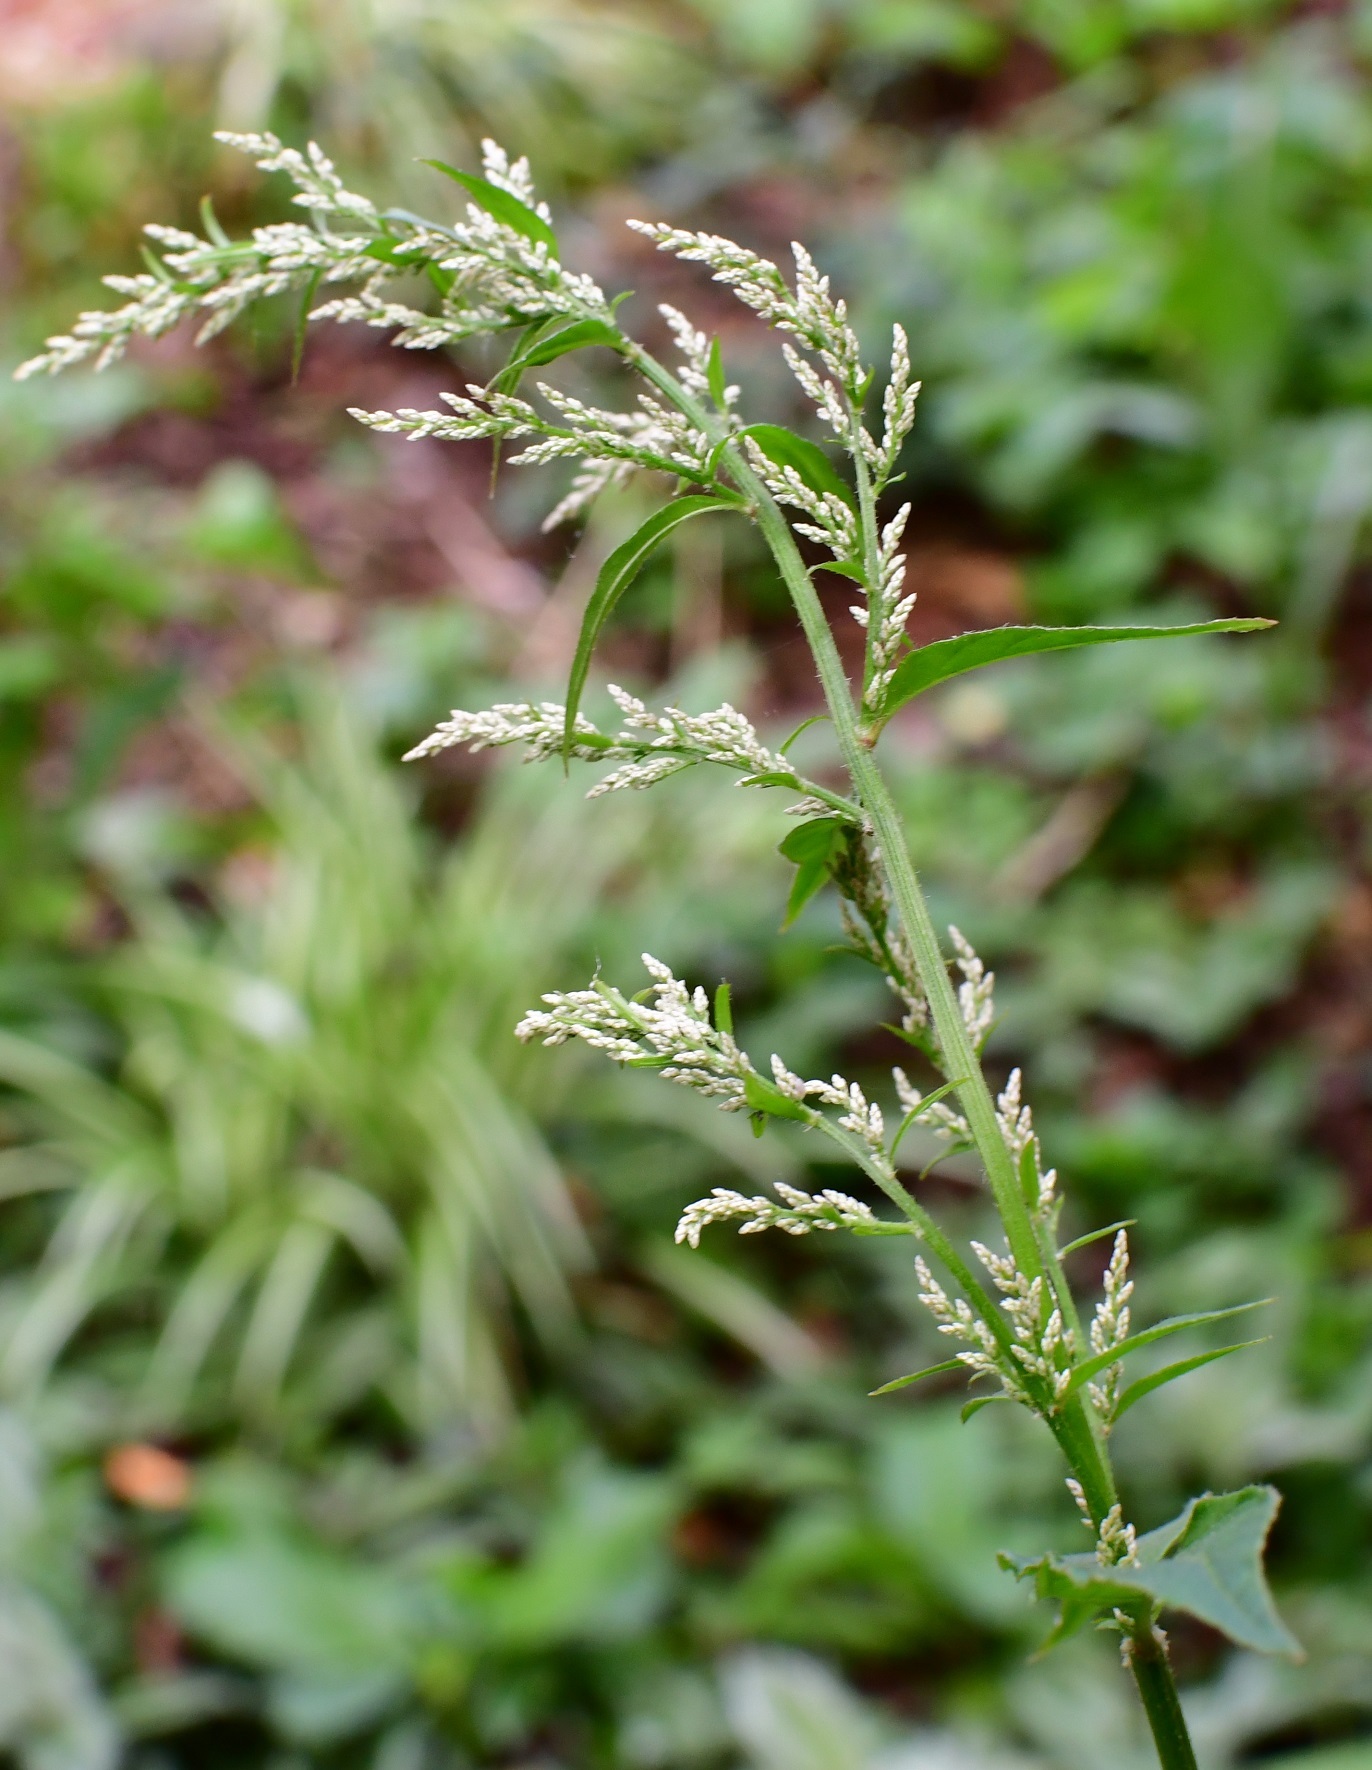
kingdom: Plantae
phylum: Tracheophyta
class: Magnoliopsida
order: Caryophyllales
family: Amaranthaceae
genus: Iresine
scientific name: Iresine rhizomatosa
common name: Juda's-bush
